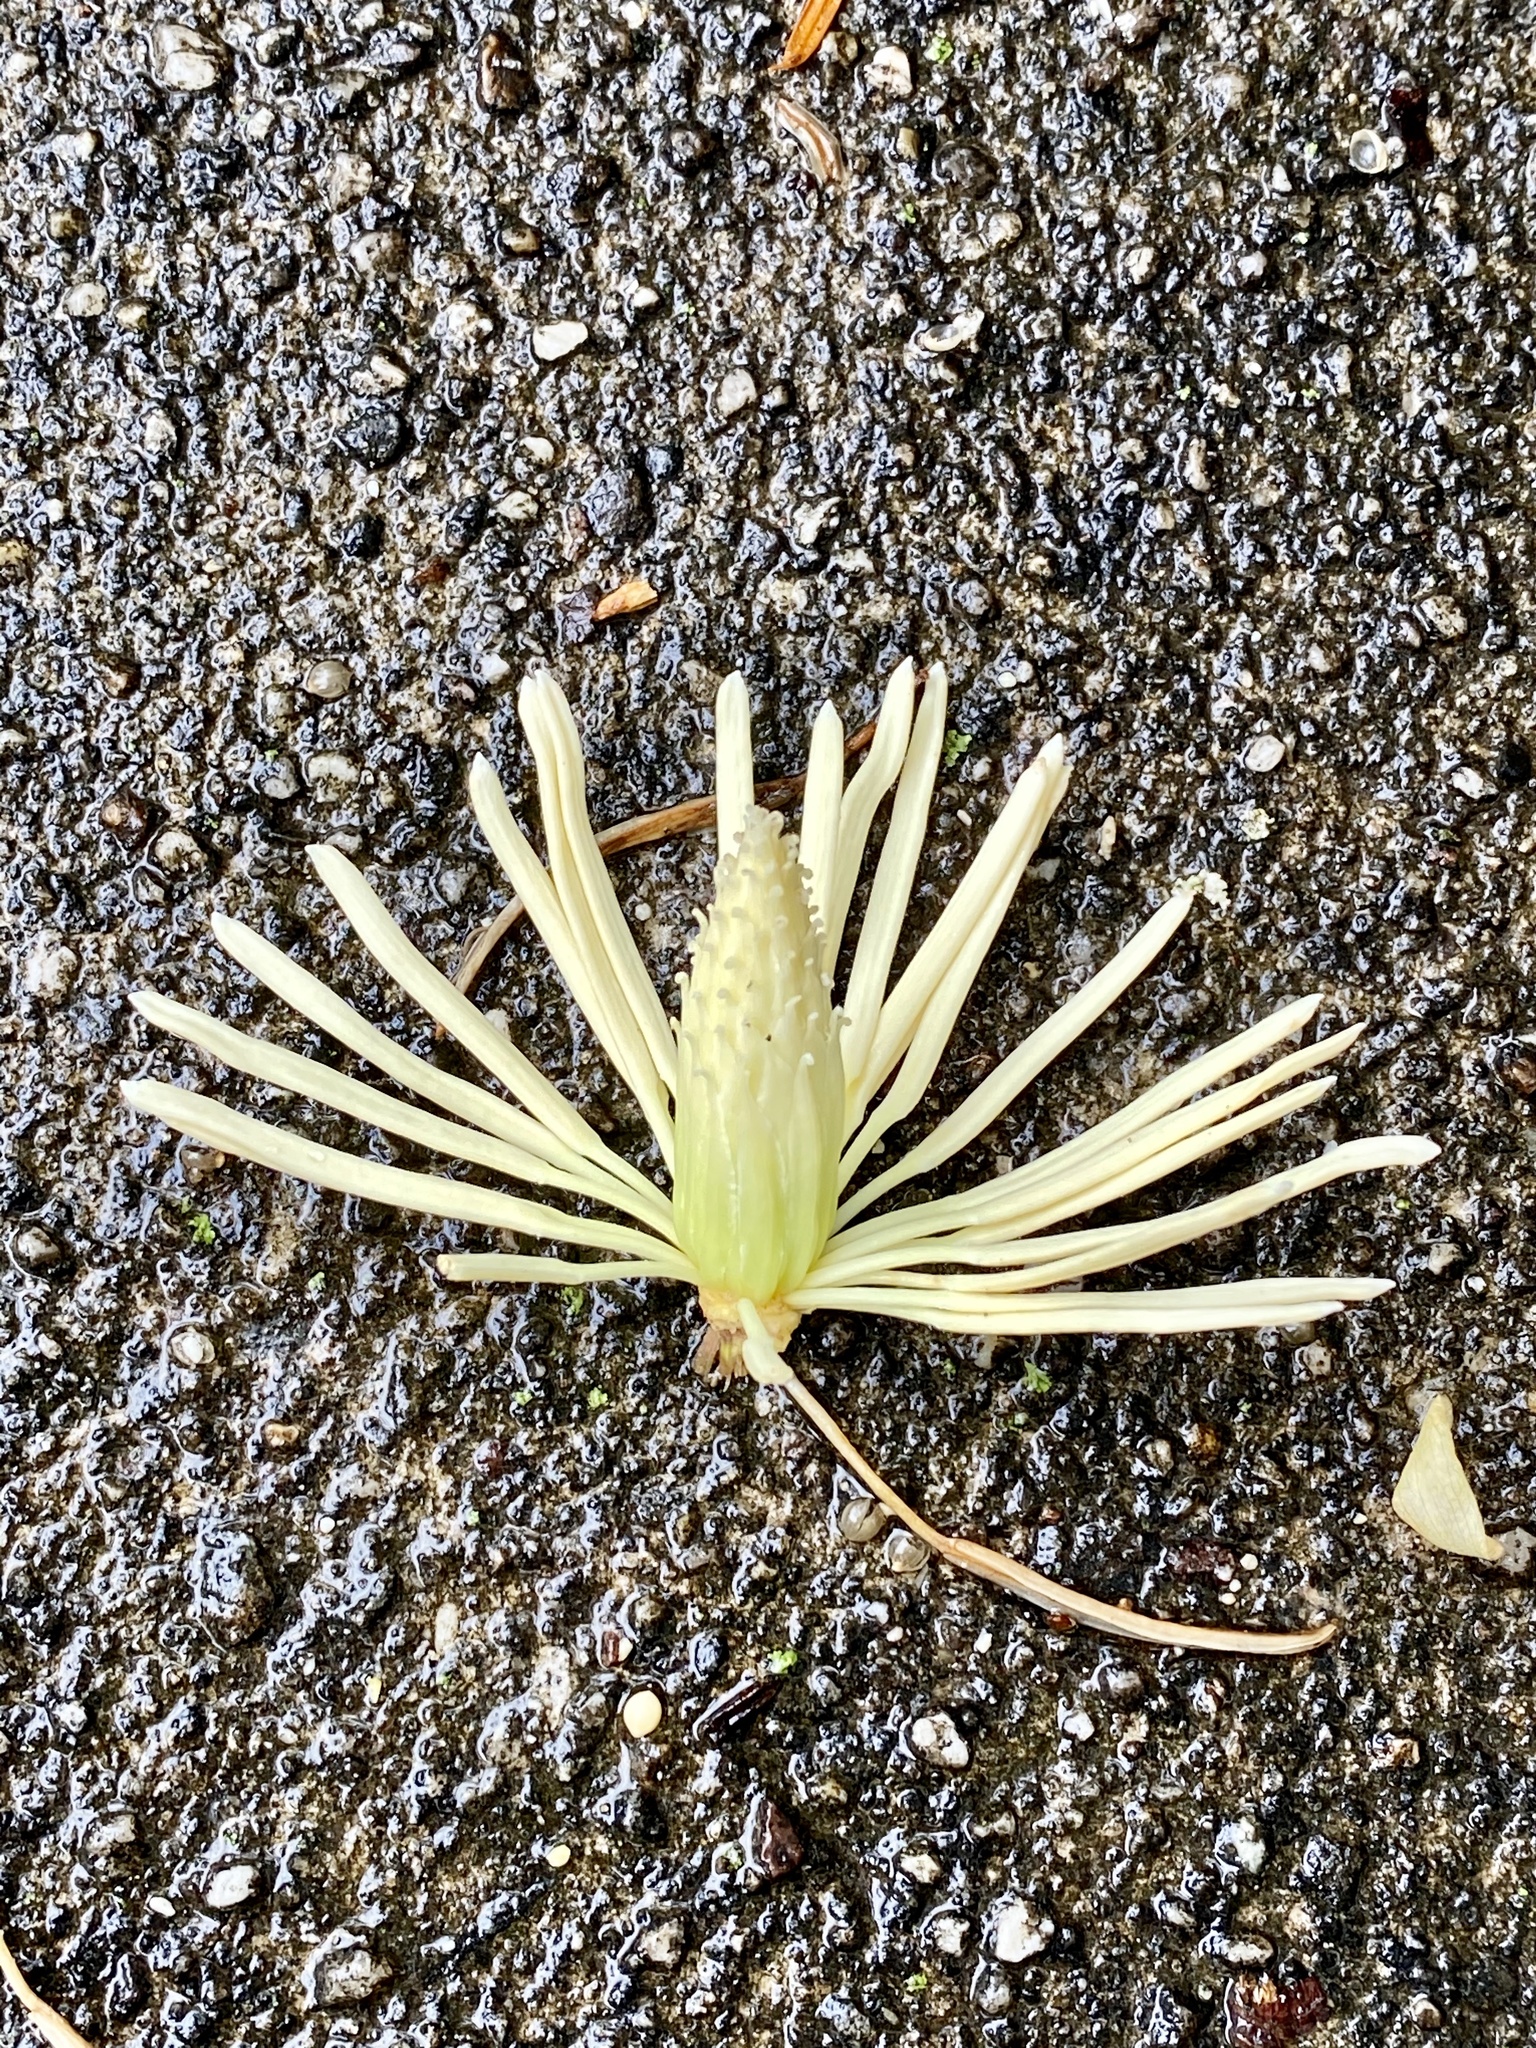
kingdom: Plantae
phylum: Tracheophyta
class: Magnoliopsida
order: Magnoliales
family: Magnoliaceae
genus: Liriodendron
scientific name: Liriodendron tulipifera
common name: Tulip tree
